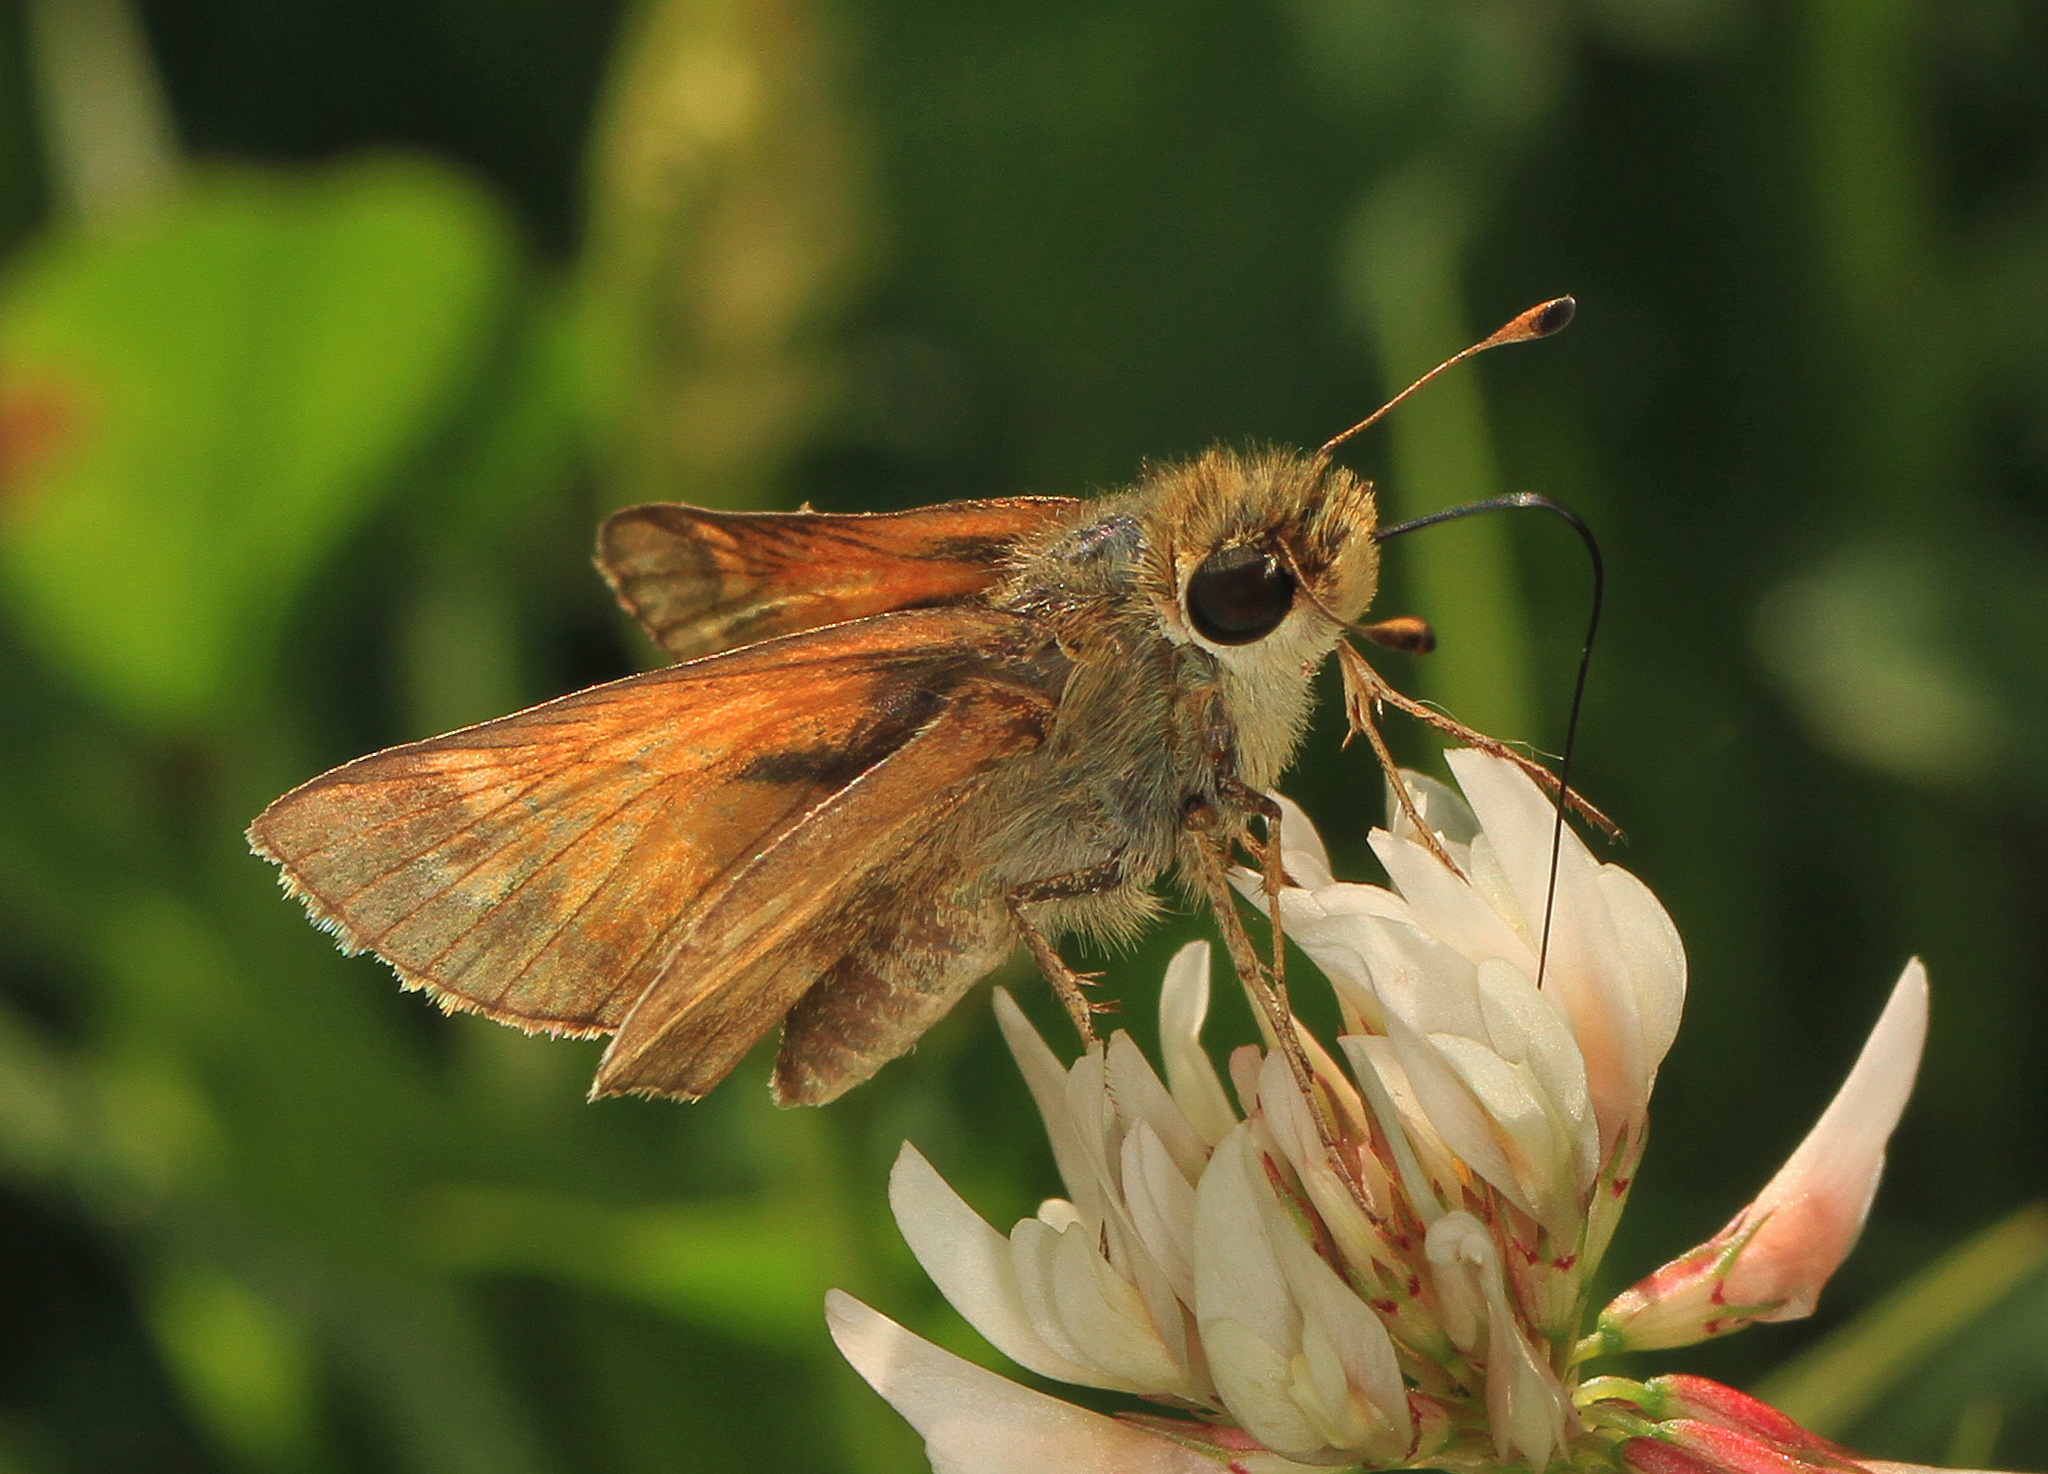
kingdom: Animalia
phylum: Arthropoda
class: Insecta
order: Lepidoptera
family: Hesperiidae
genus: Atalopedes
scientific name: Atalopedes
